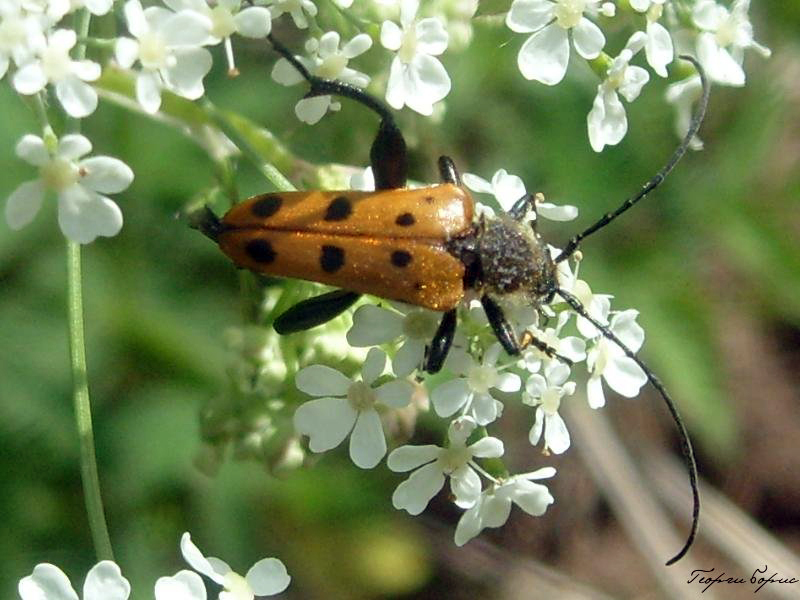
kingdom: Animalia
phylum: Arthropoda
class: Insecta
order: Coleoptera
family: Cerambycidae
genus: Oedecnema
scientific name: Oedecnema gebleri
